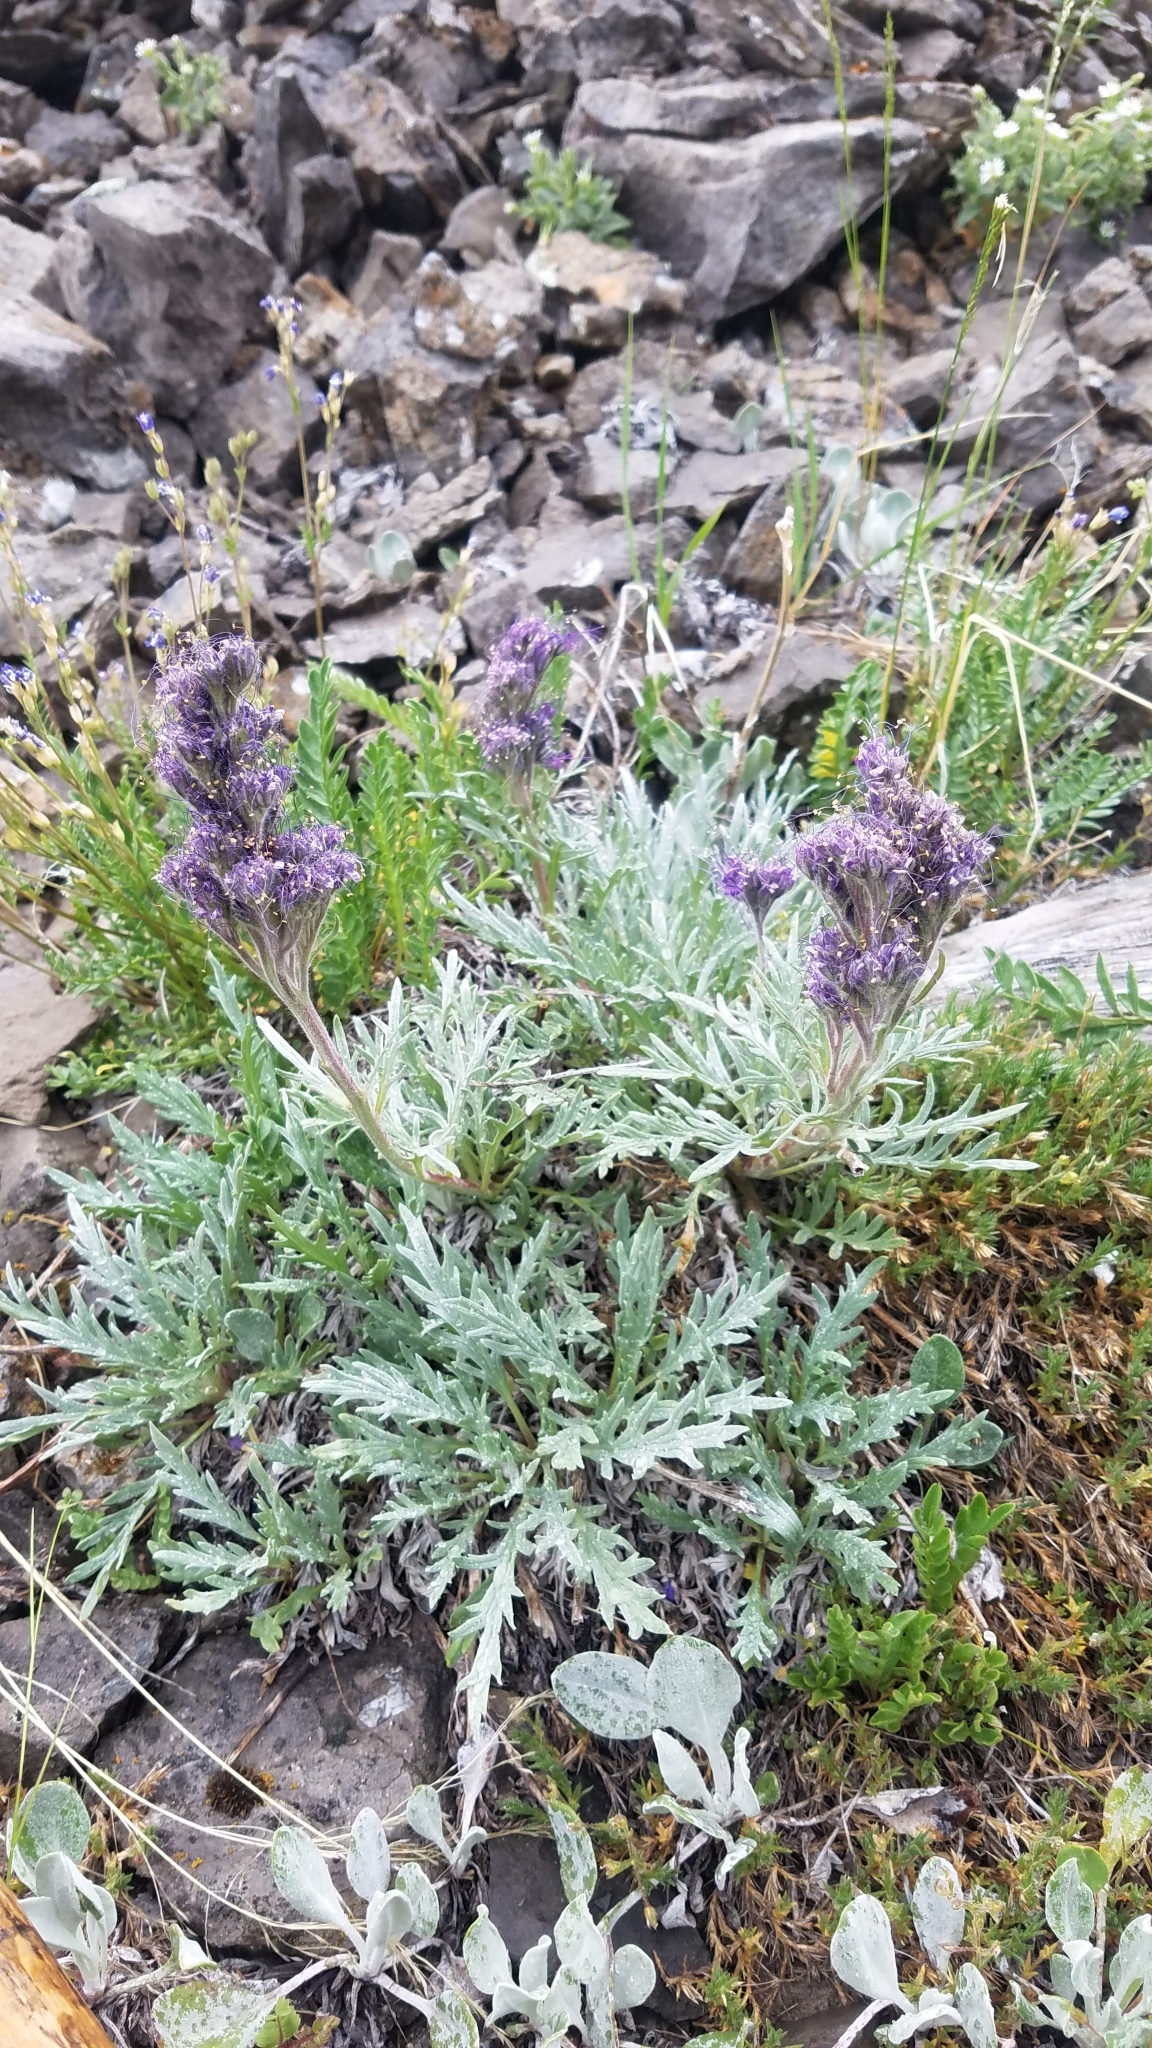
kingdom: Plantae
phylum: Tracheophyta
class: Magnoliopsida
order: Boraginales
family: Hydrophyllaceae
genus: Phacelia
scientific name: Phacelia sericea
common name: Silky phacelia
